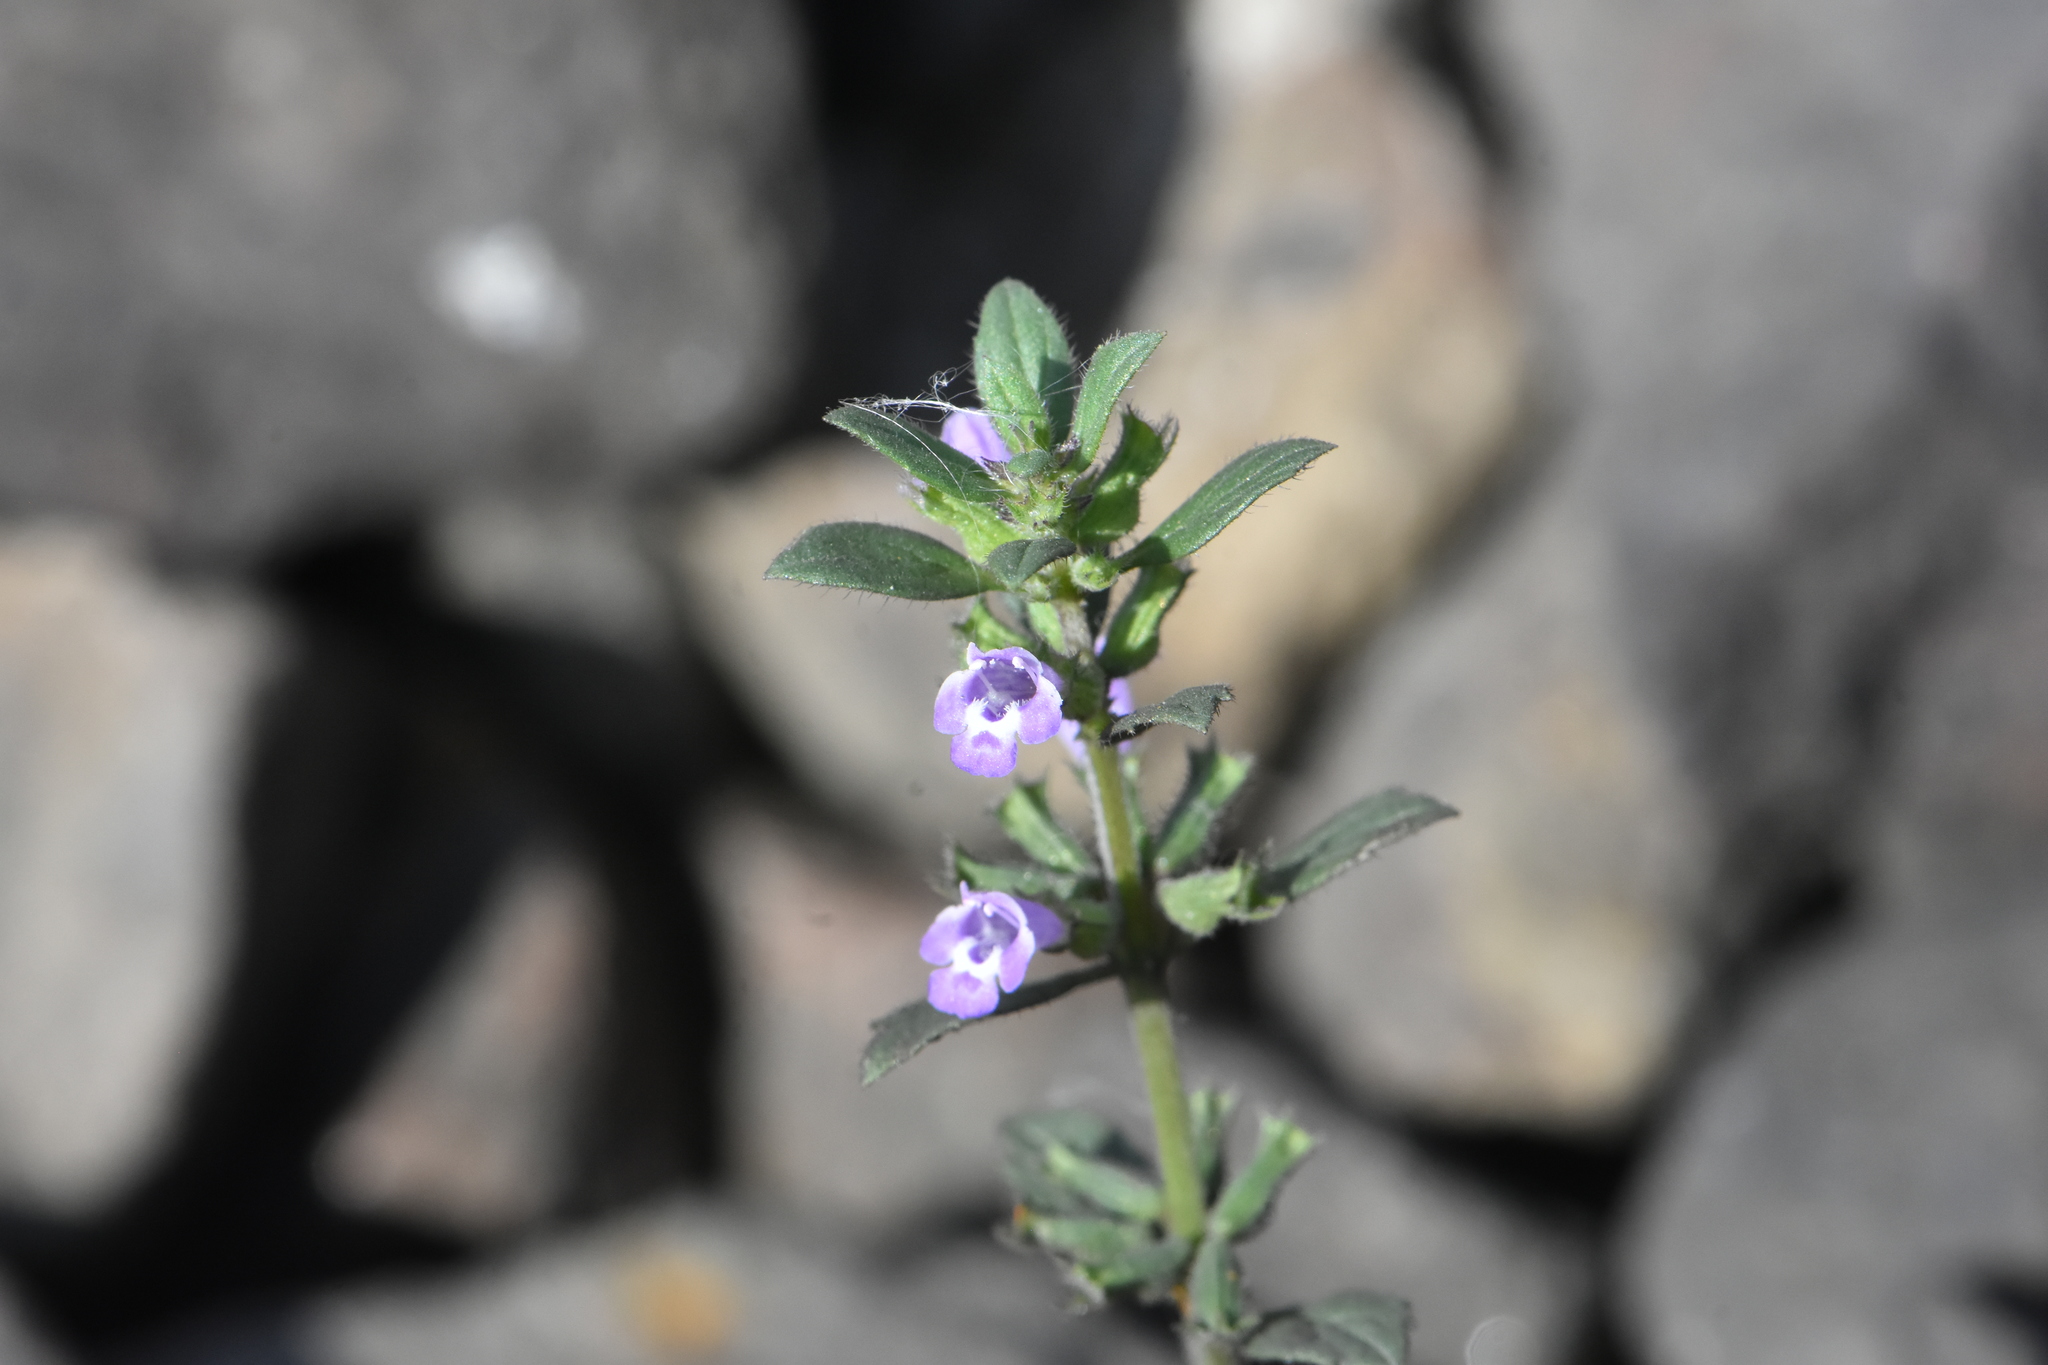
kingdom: Plantae
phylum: Tracheophyta
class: Magnoliopsida
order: Lamiales
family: Lamiaceae
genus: Clinopodium
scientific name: Clinopodium acinos
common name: Basil thyme
